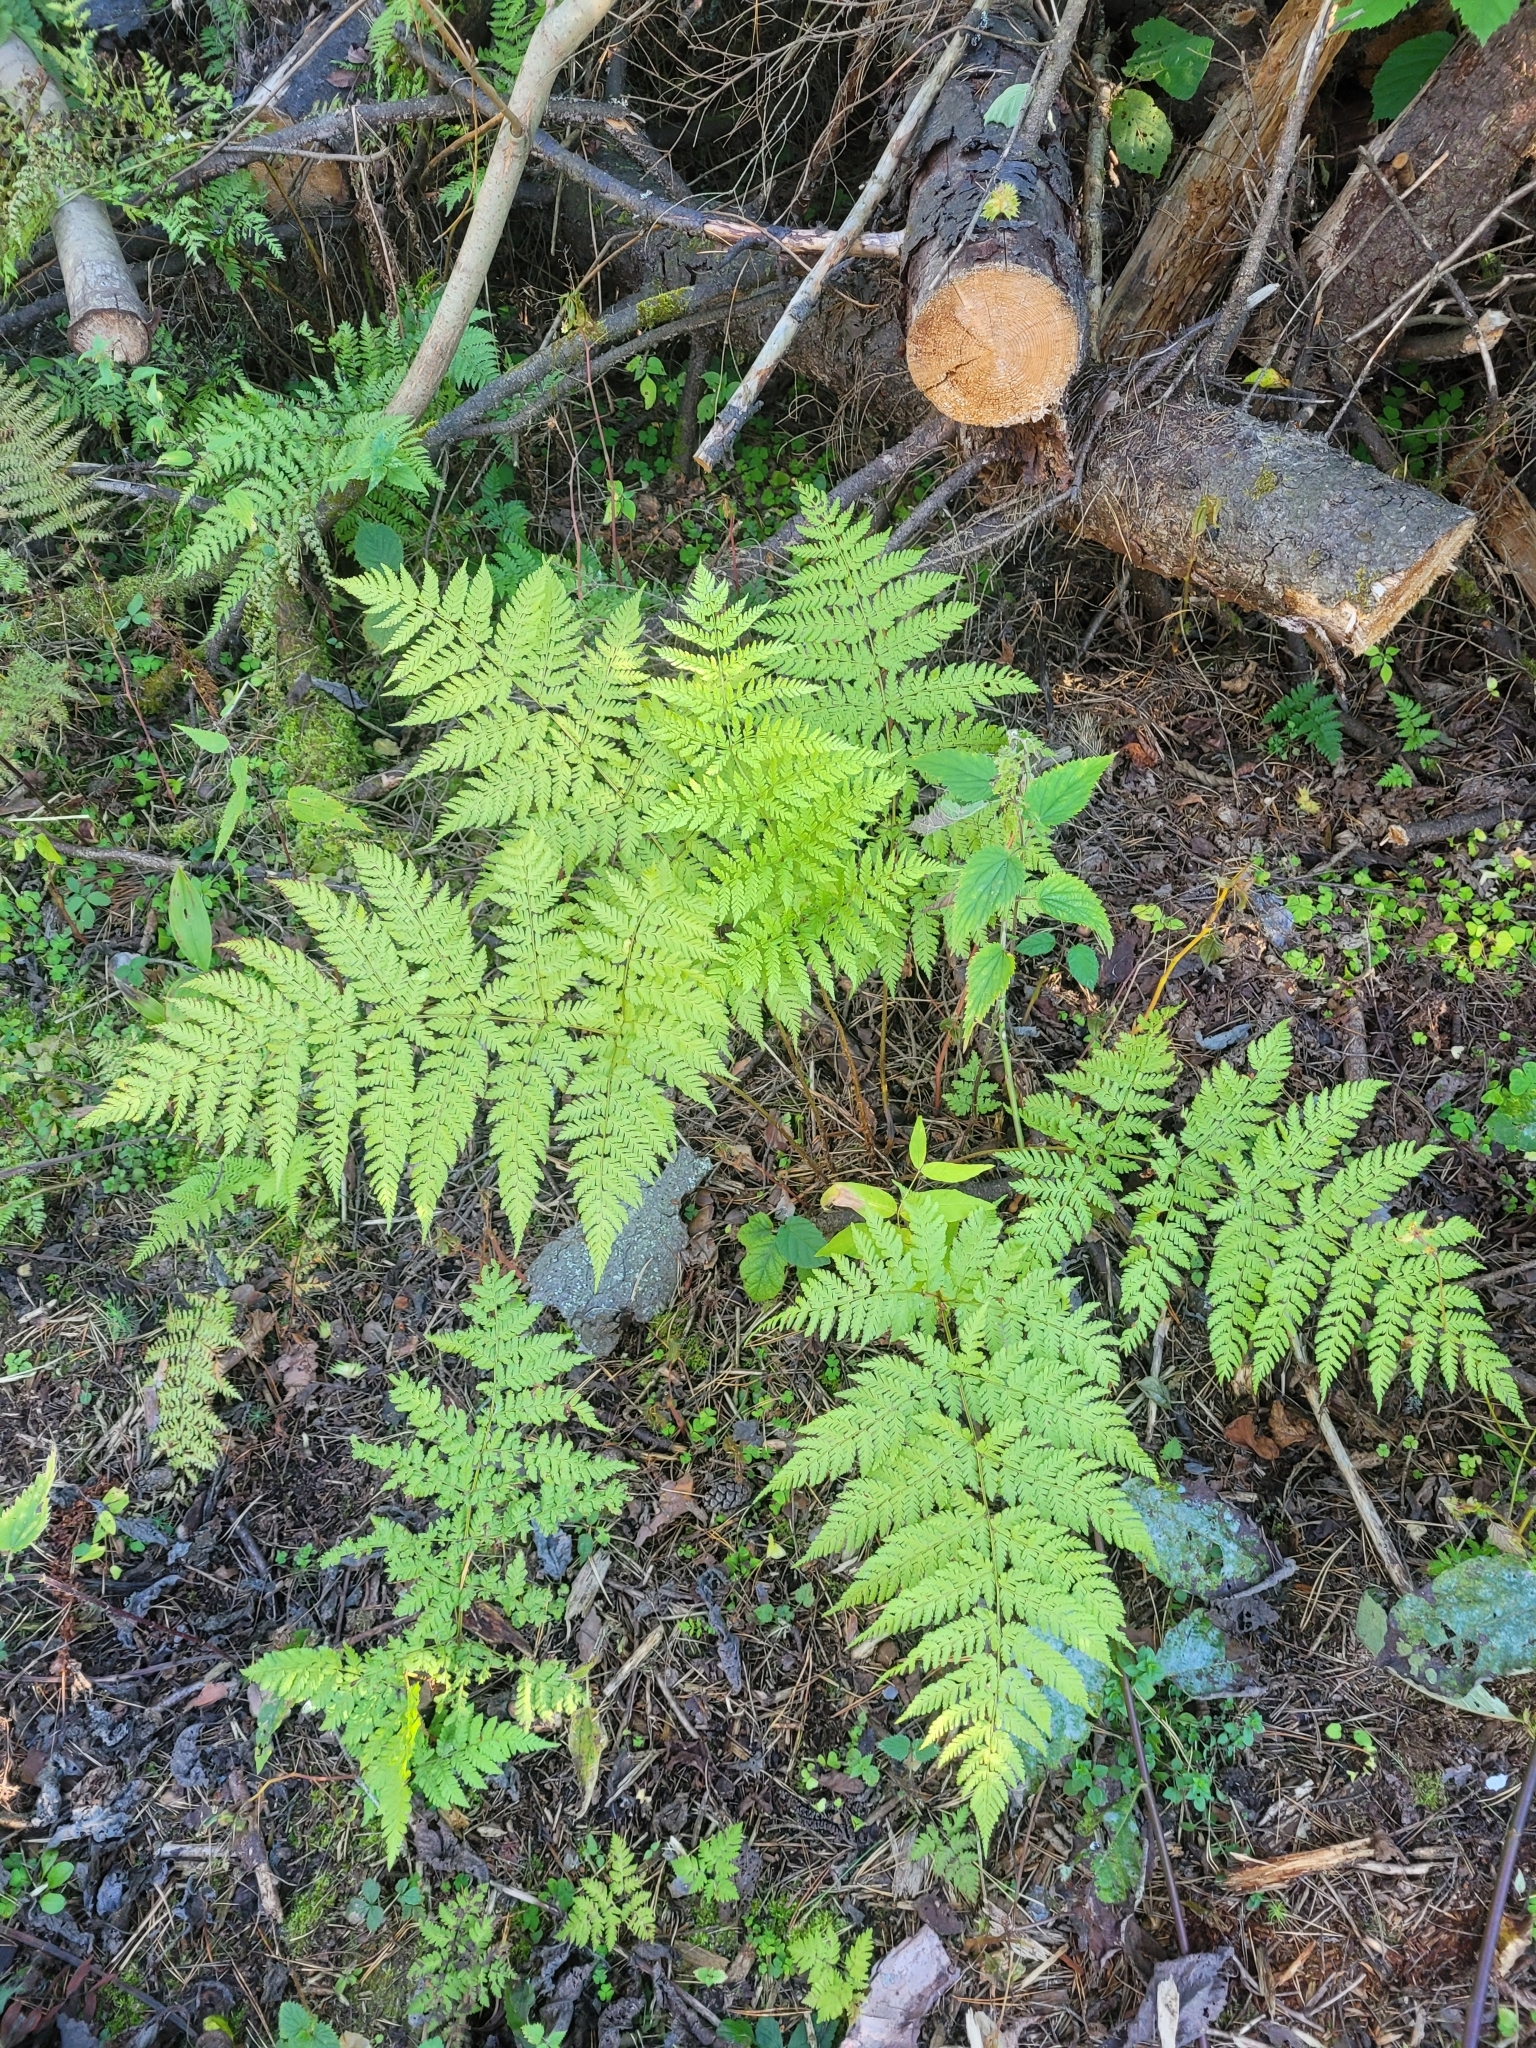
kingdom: Plantae
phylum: Tracheophyta
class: Polypodiopsida
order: Polypodiales
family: Dryopteridaceae
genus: Dryopteris
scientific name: Dryopteris expansa
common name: Northern buckler fern
